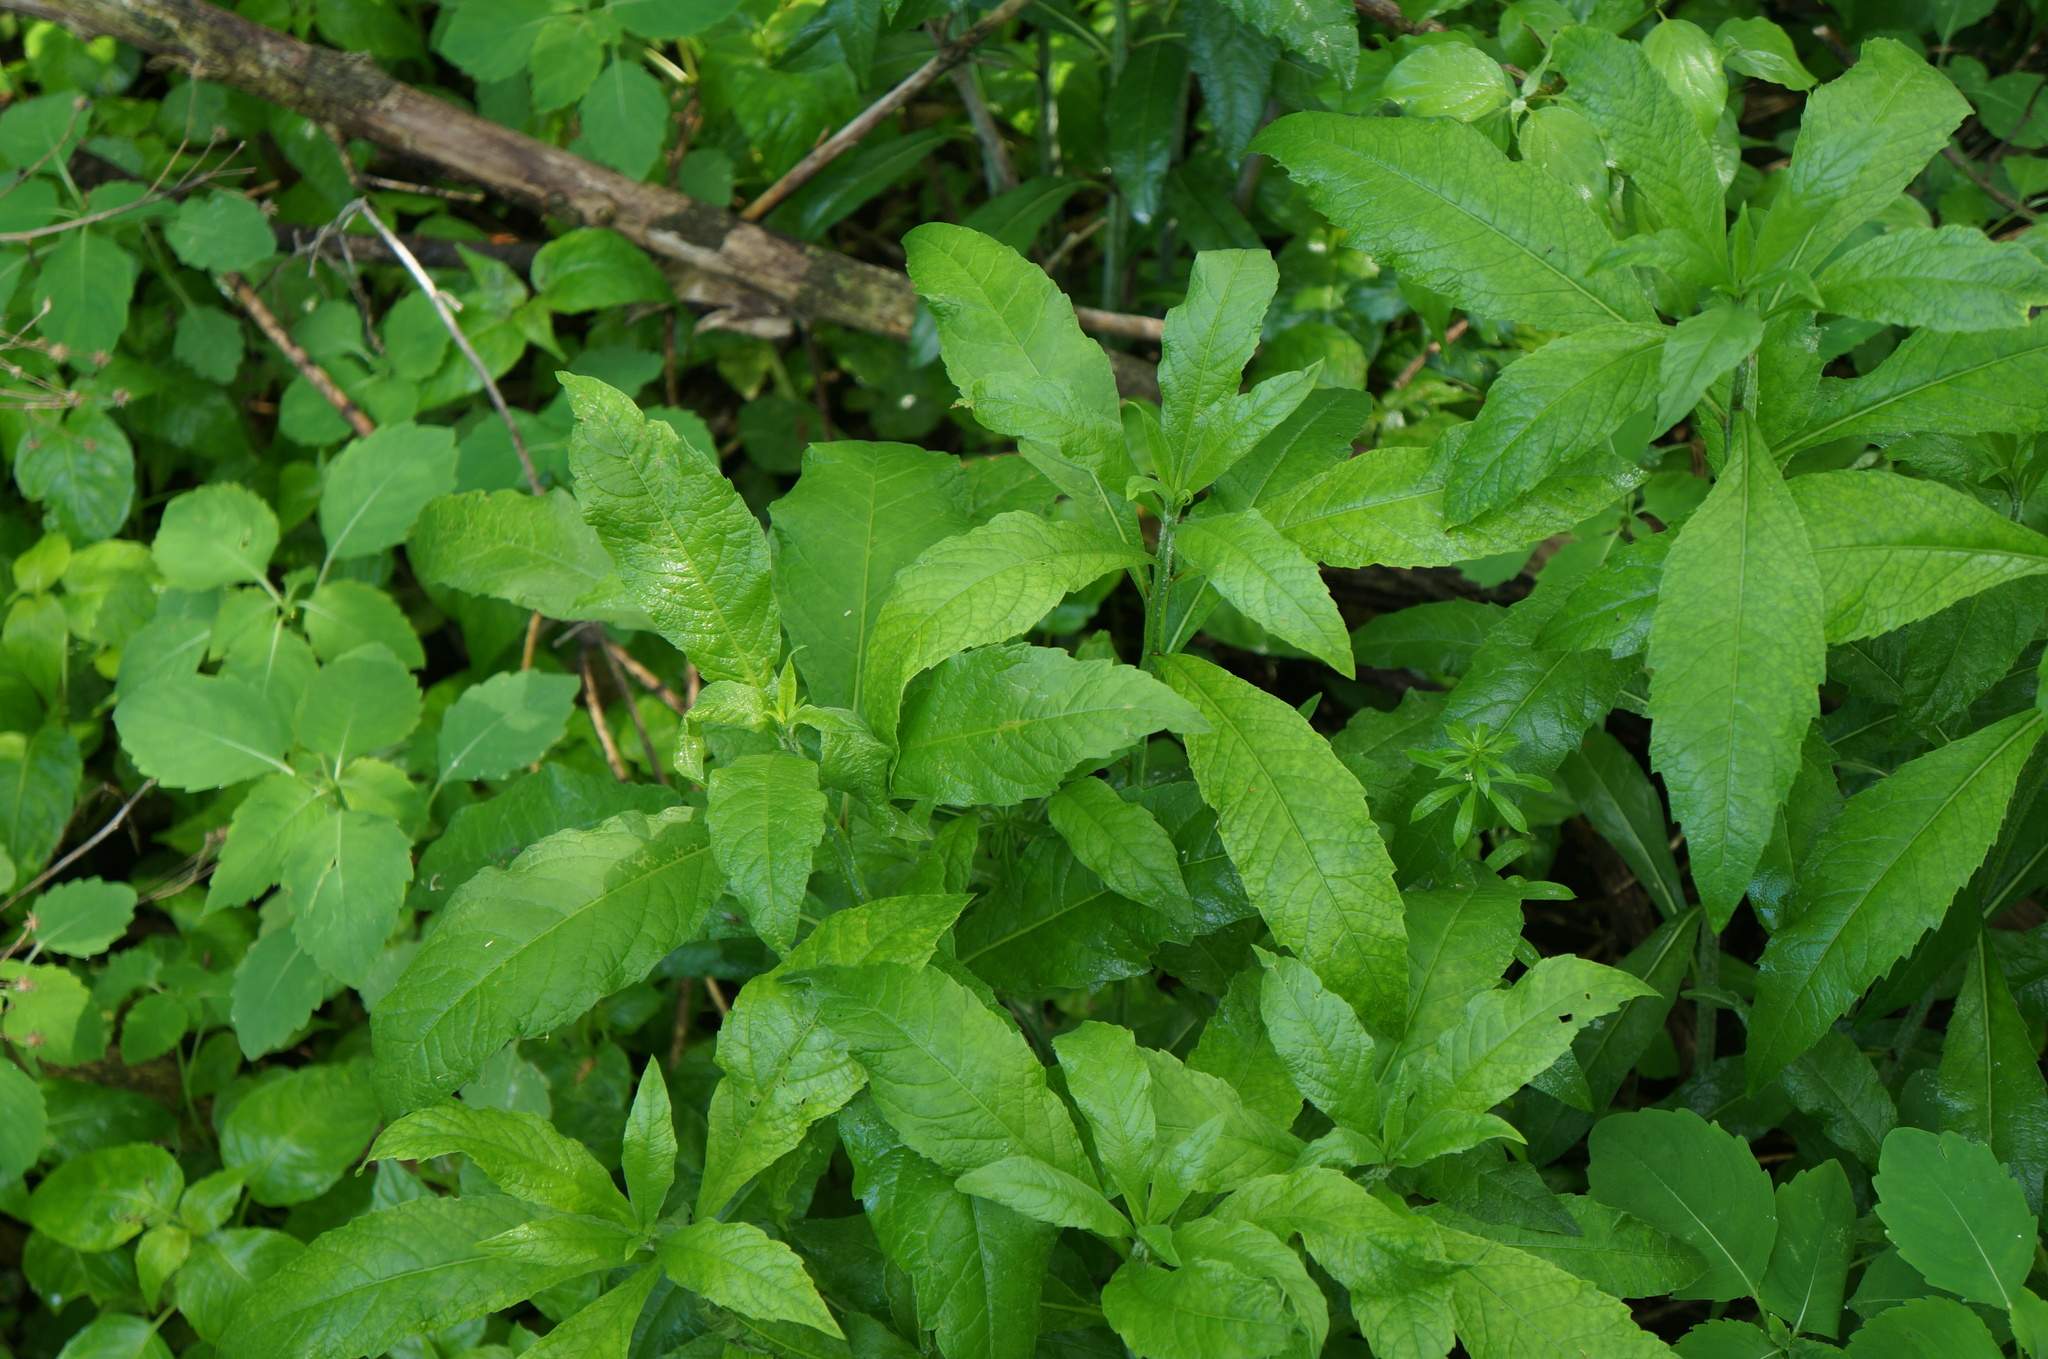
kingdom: Plantae
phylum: Tracheophyta
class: Magnoliopsida
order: Asterales
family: Asteraceae
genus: Verbesina
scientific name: Verbesina alternifolia
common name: Wingstem
